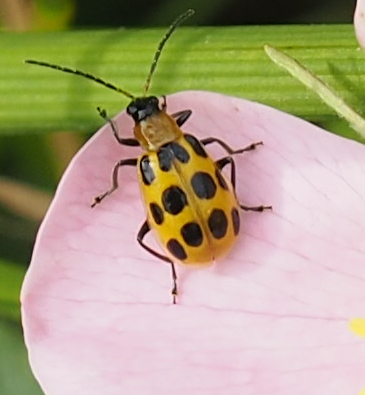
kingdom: Animalia
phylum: Arthropoda
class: Insecta
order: Coleoptera
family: Chrysomelidae
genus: Diabrotica
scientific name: Diabrotica undecimpunctata
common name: Spotted cucumber beetle
